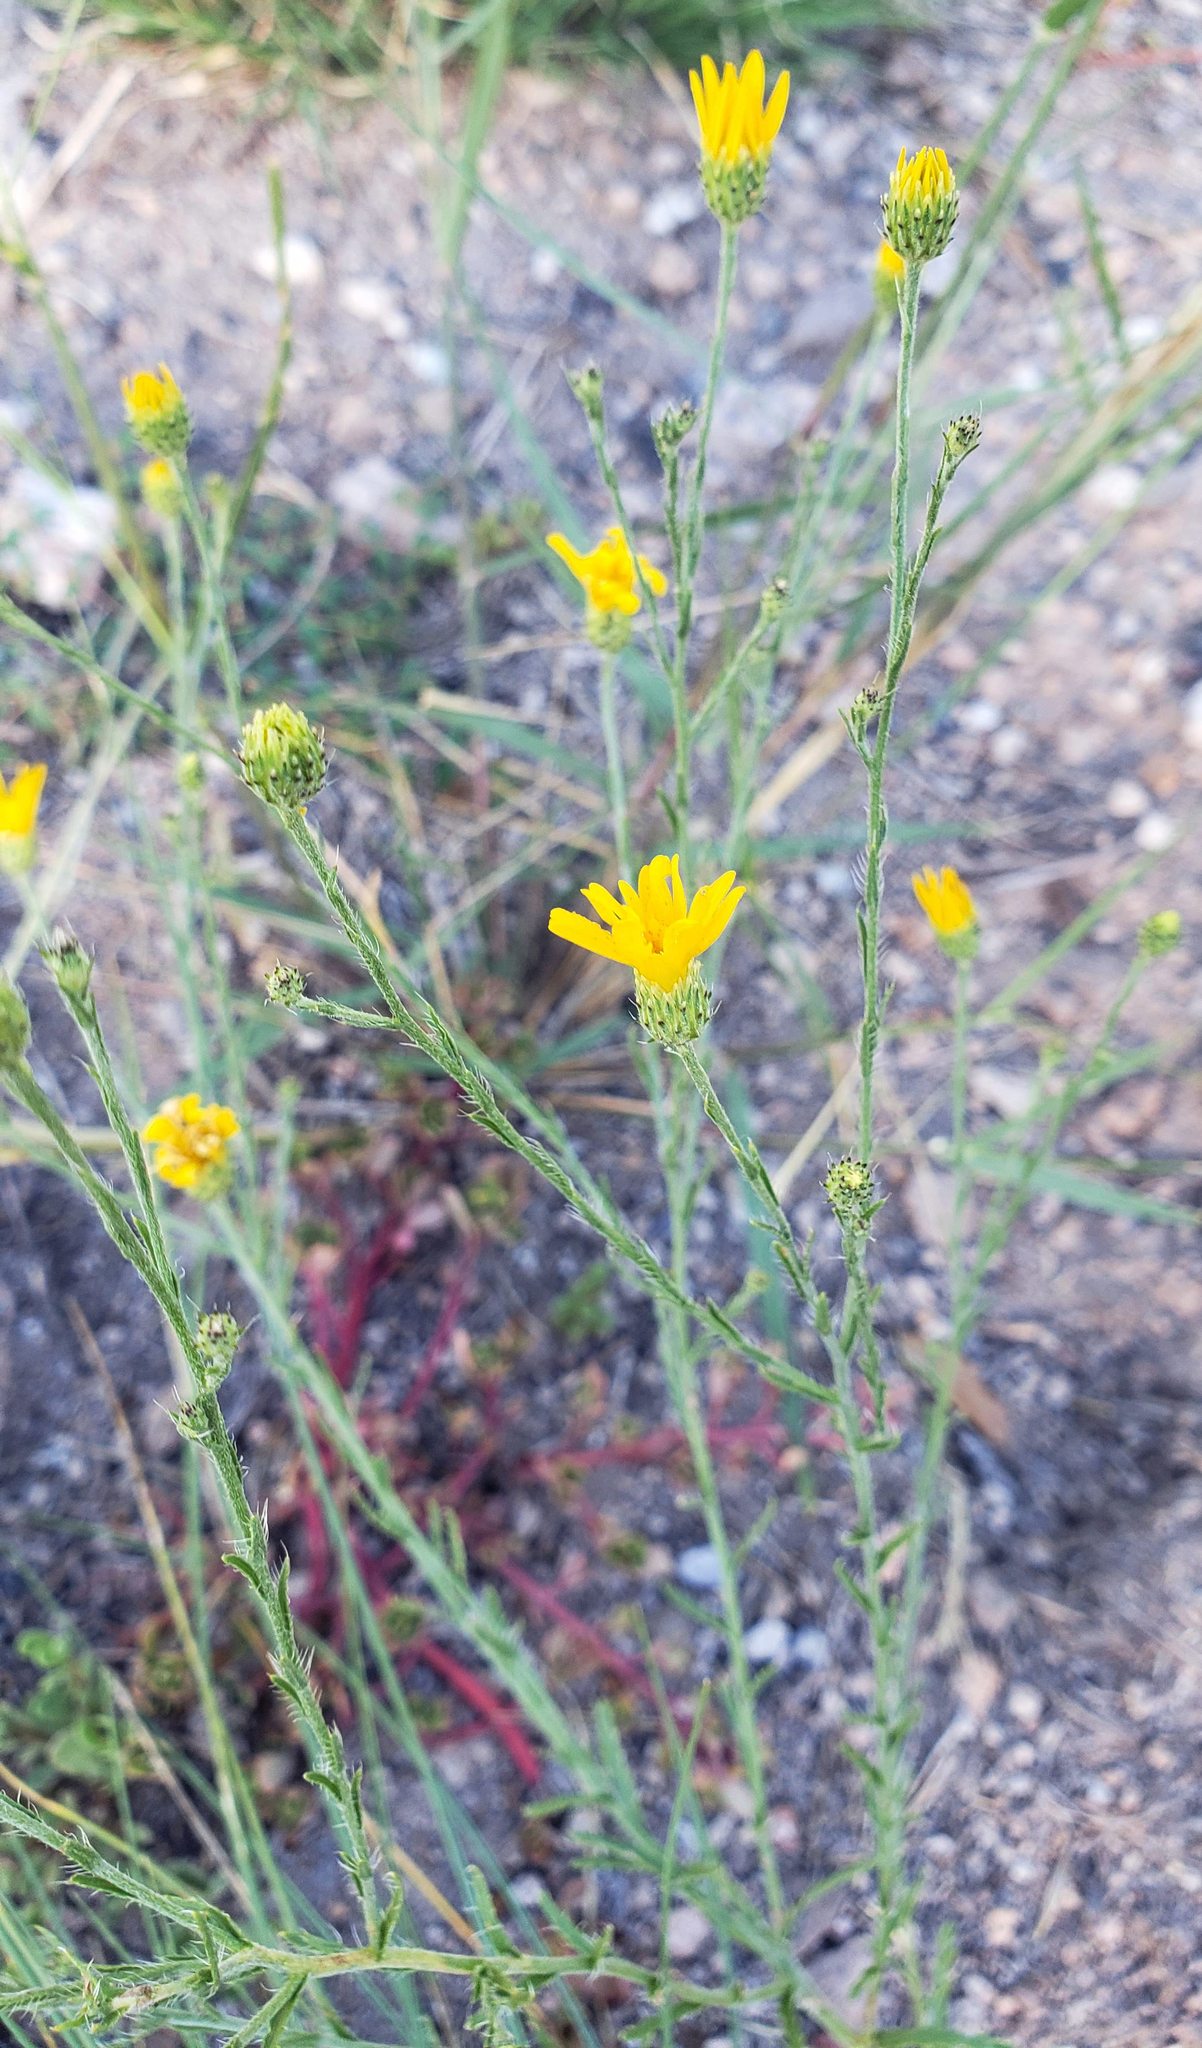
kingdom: Plantae
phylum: Tracheophyta
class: Magnoliopsida
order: Asterales
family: Asteraceae
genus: Xanthisma
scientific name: Xanthisma spinulosum
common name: Spiny goldenweed
